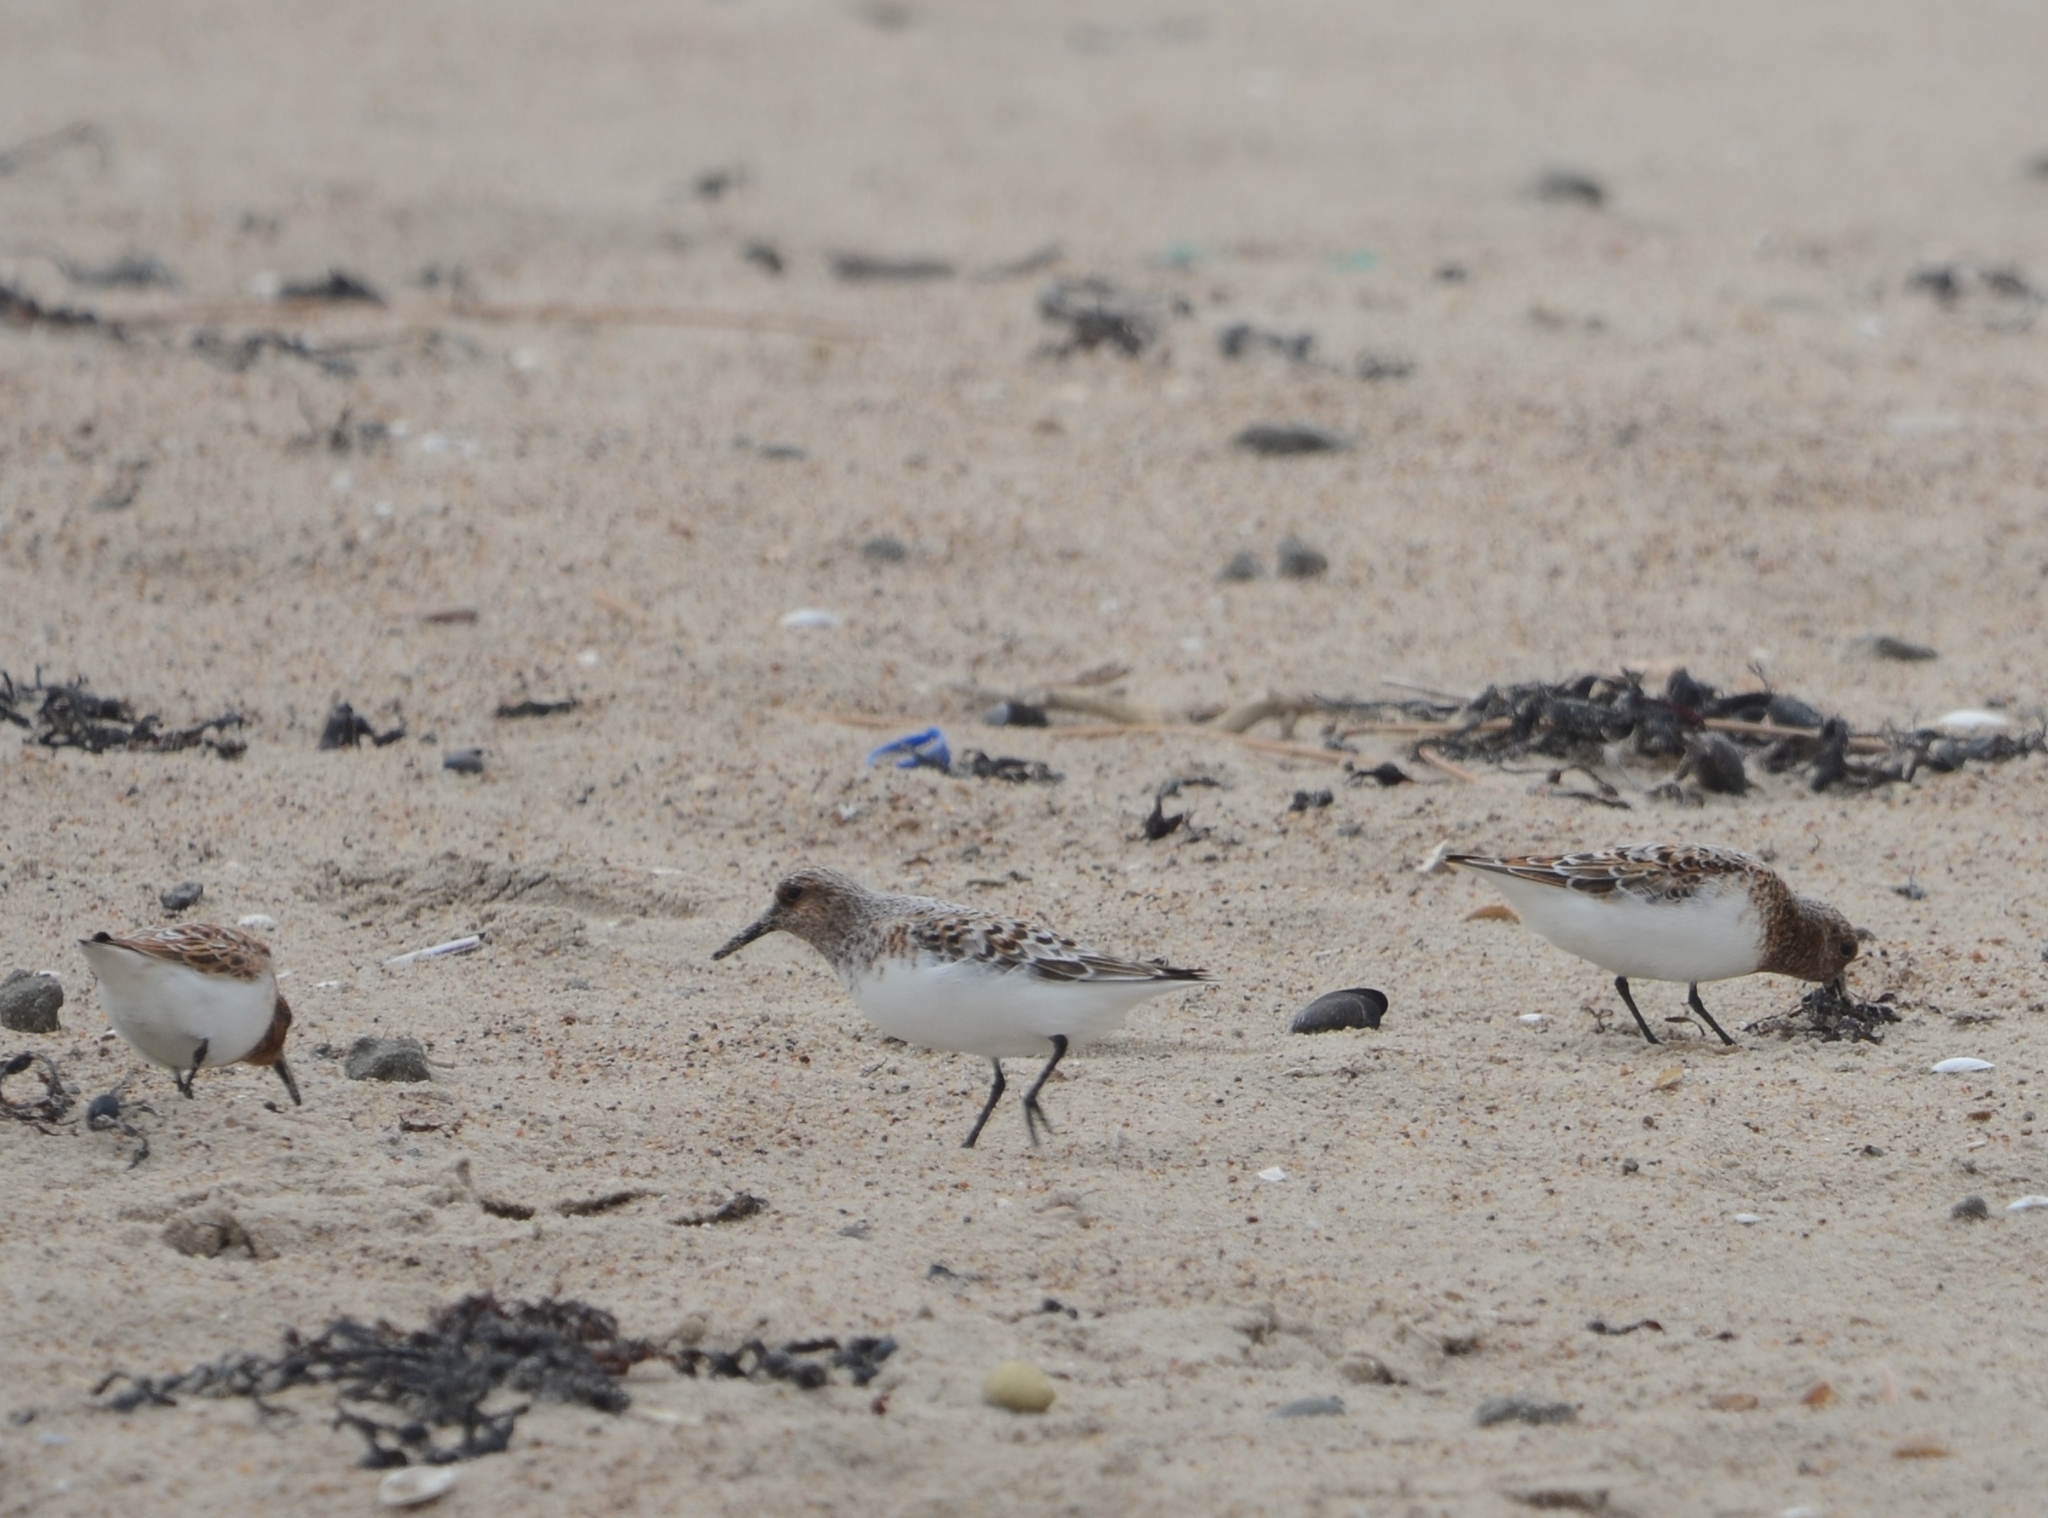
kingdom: Animalia
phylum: Chordata
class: Aves
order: Charadriiformes
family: Scolopacidae
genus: Calidris
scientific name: Calidris alba
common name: Sanderling
